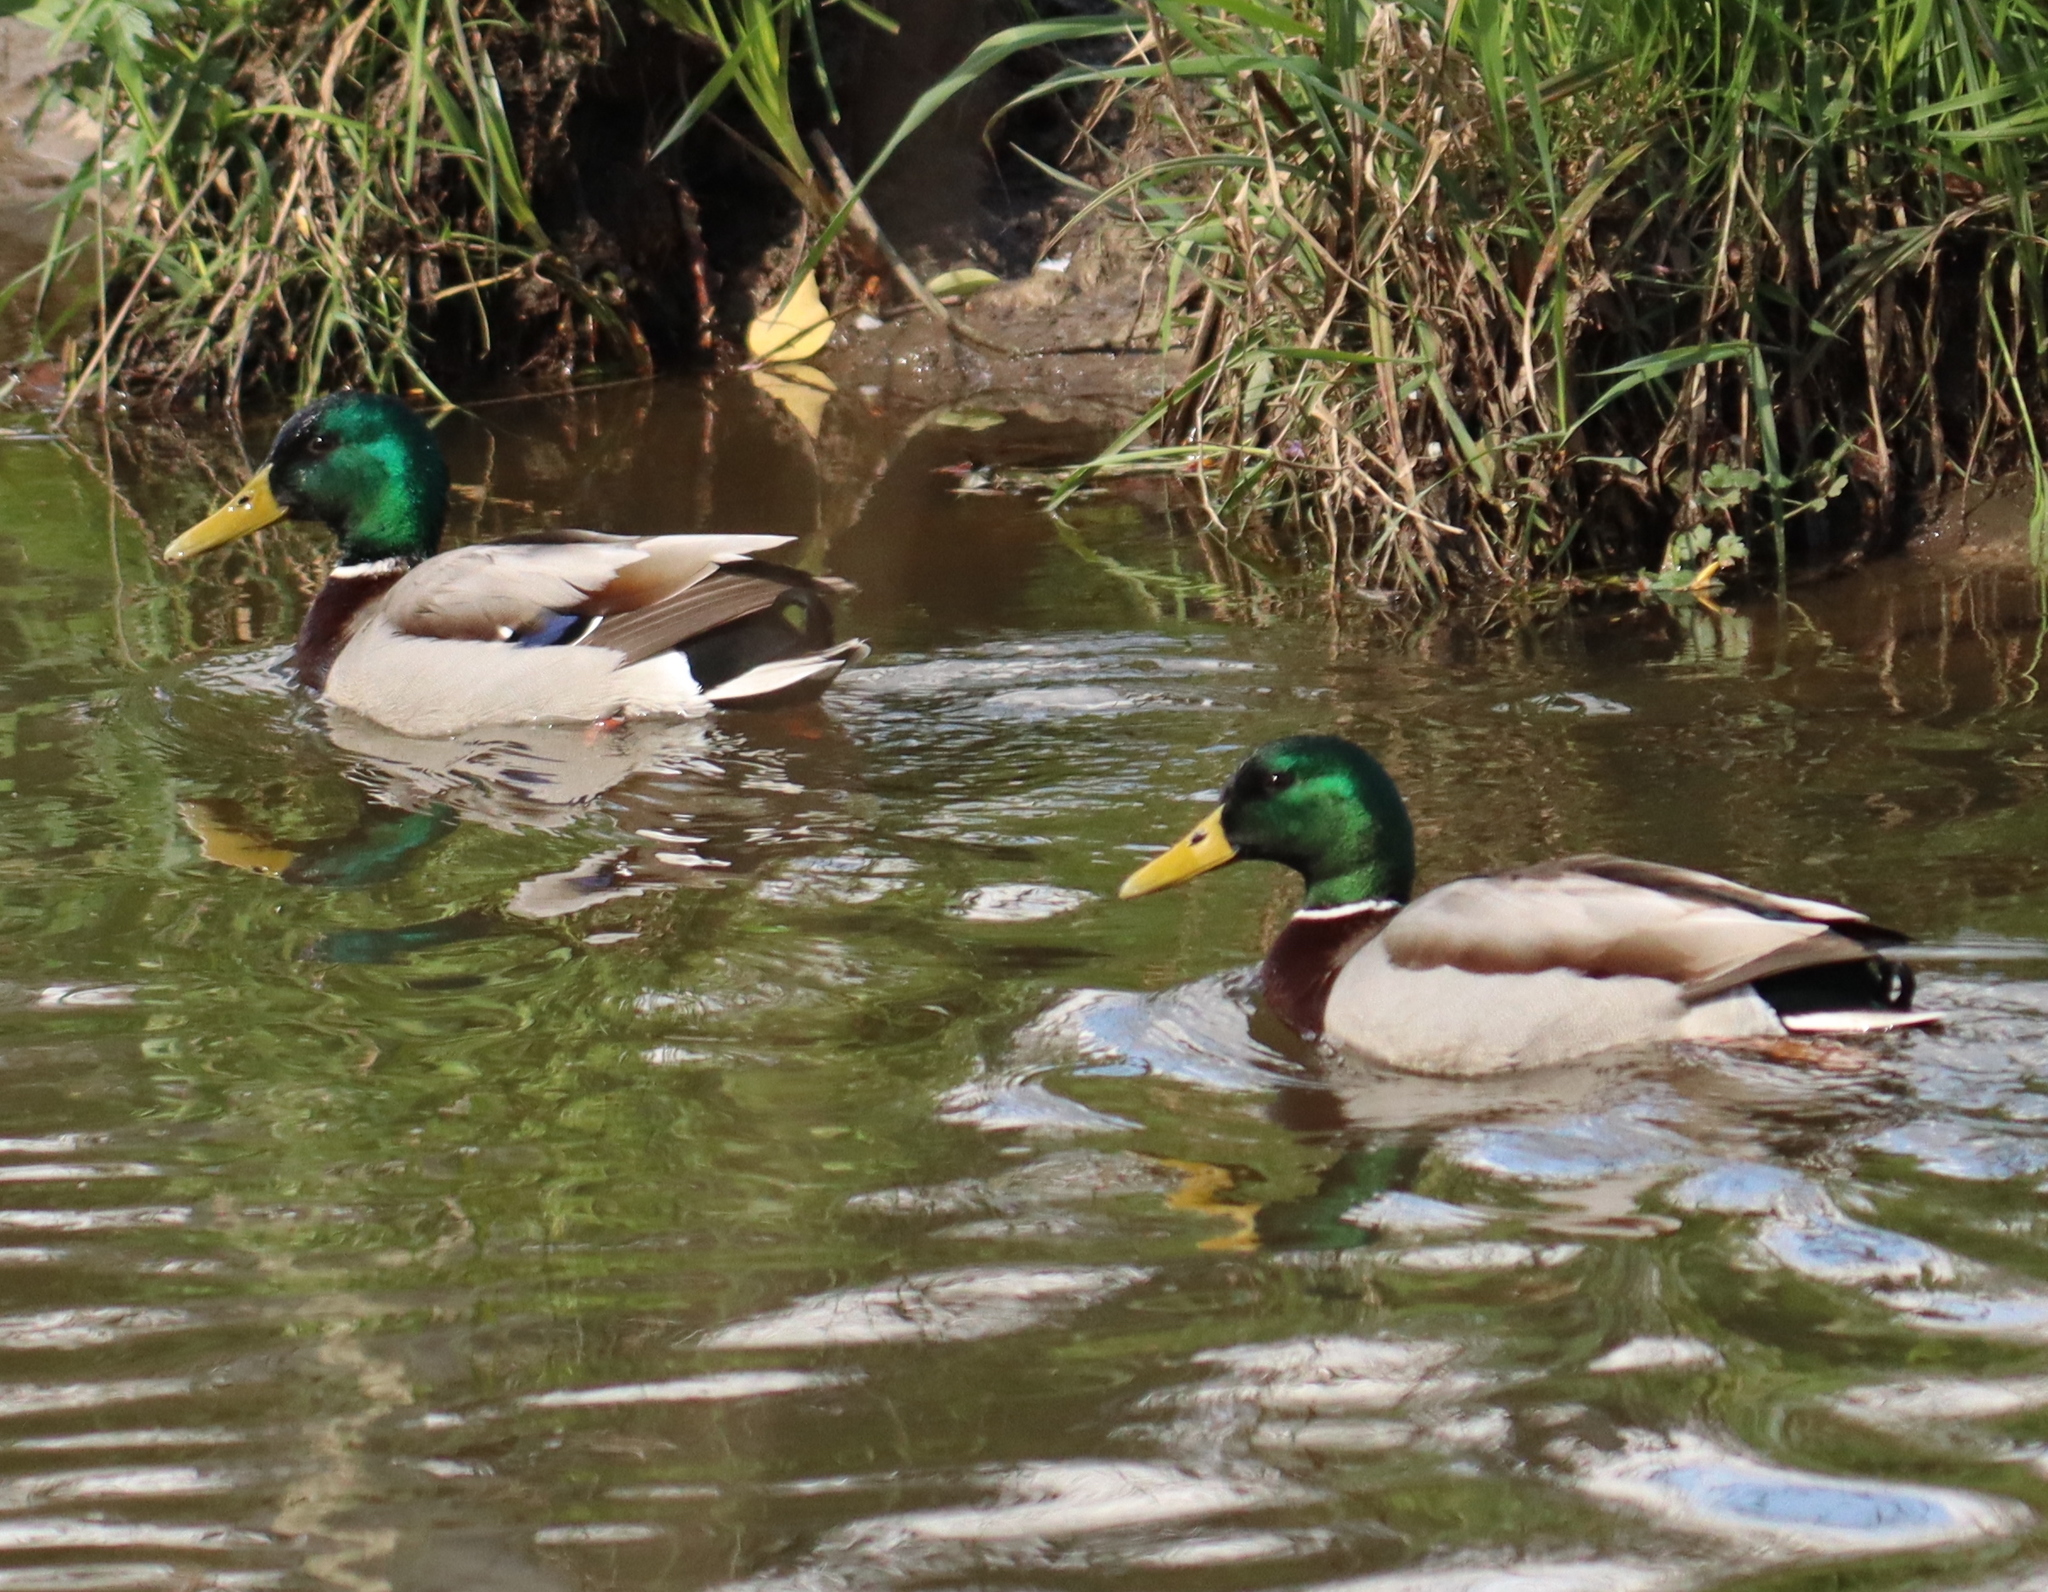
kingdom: Animalia
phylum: Chordata
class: Aves
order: Anseriformes
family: Anatidae
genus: Anas
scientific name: Anas platyrhynchos
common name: Mallard
